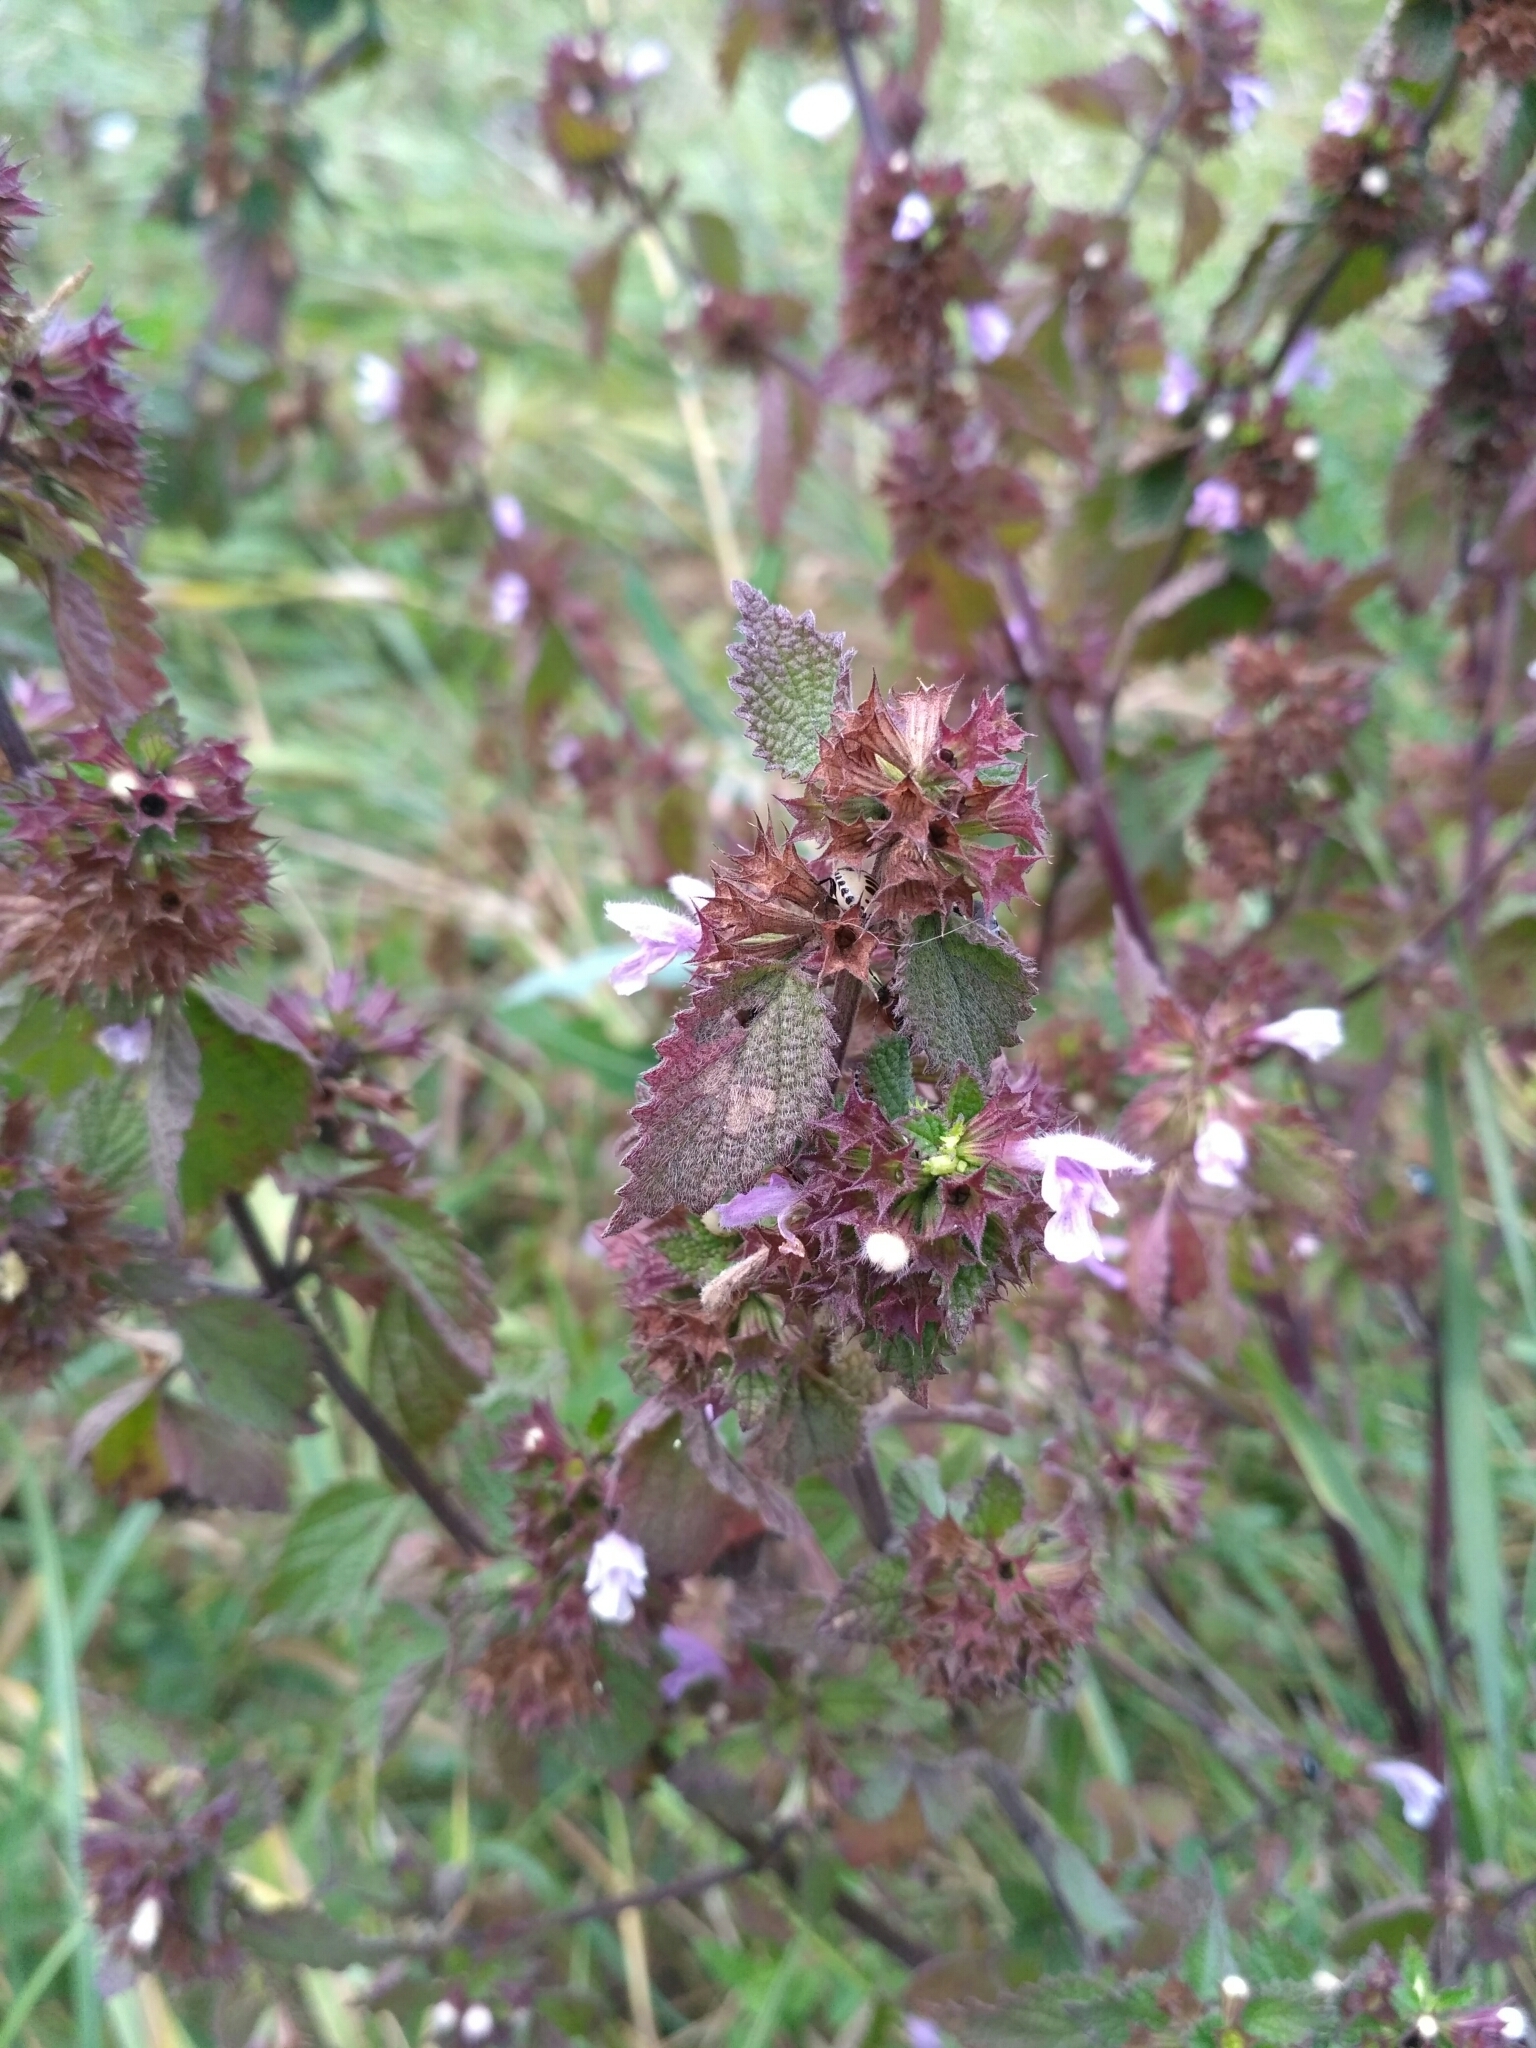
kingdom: Plantae
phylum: Tracheophyta
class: Magnoliopsida
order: Lamiales
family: Lamiaceae
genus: Ballota
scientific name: Ballota nigra
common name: Black horehound
